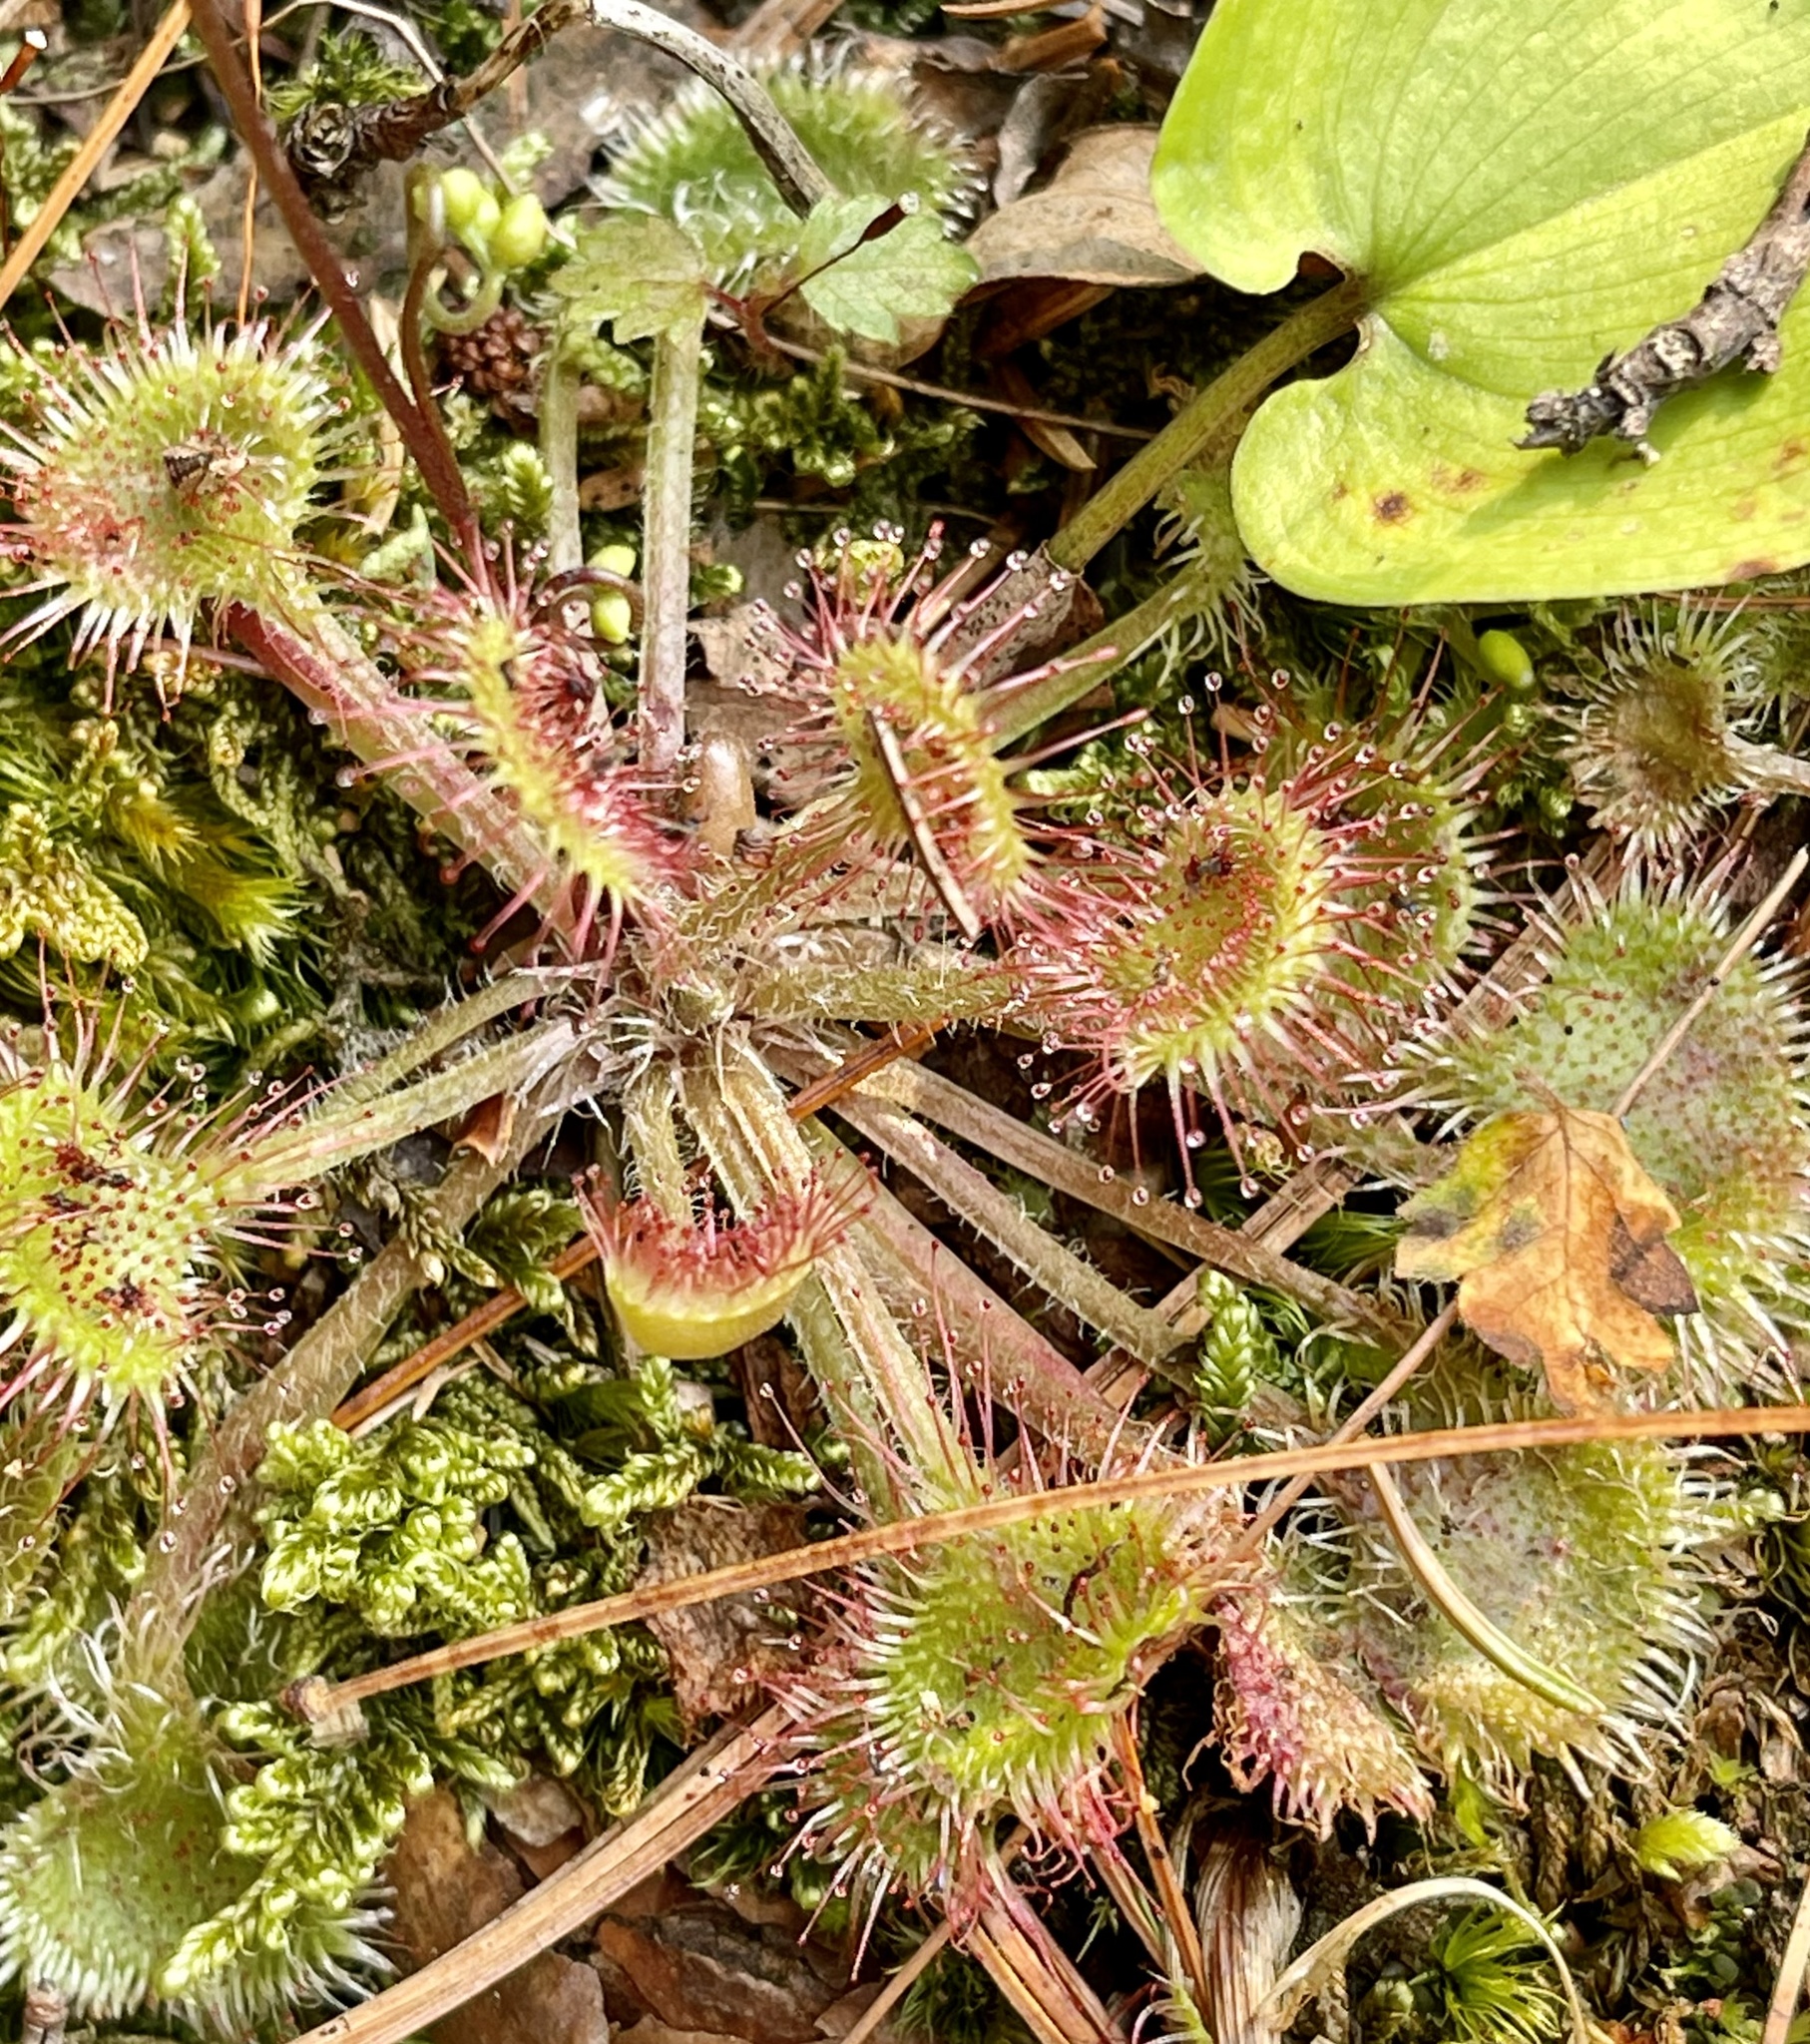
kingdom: Plantae
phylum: Tracheophyta
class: Magnoliopsida
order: Caryophyllales
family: Droseraceae
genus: Drosera
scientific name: Drosera rotundifolia
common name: Round-leaved sundew
